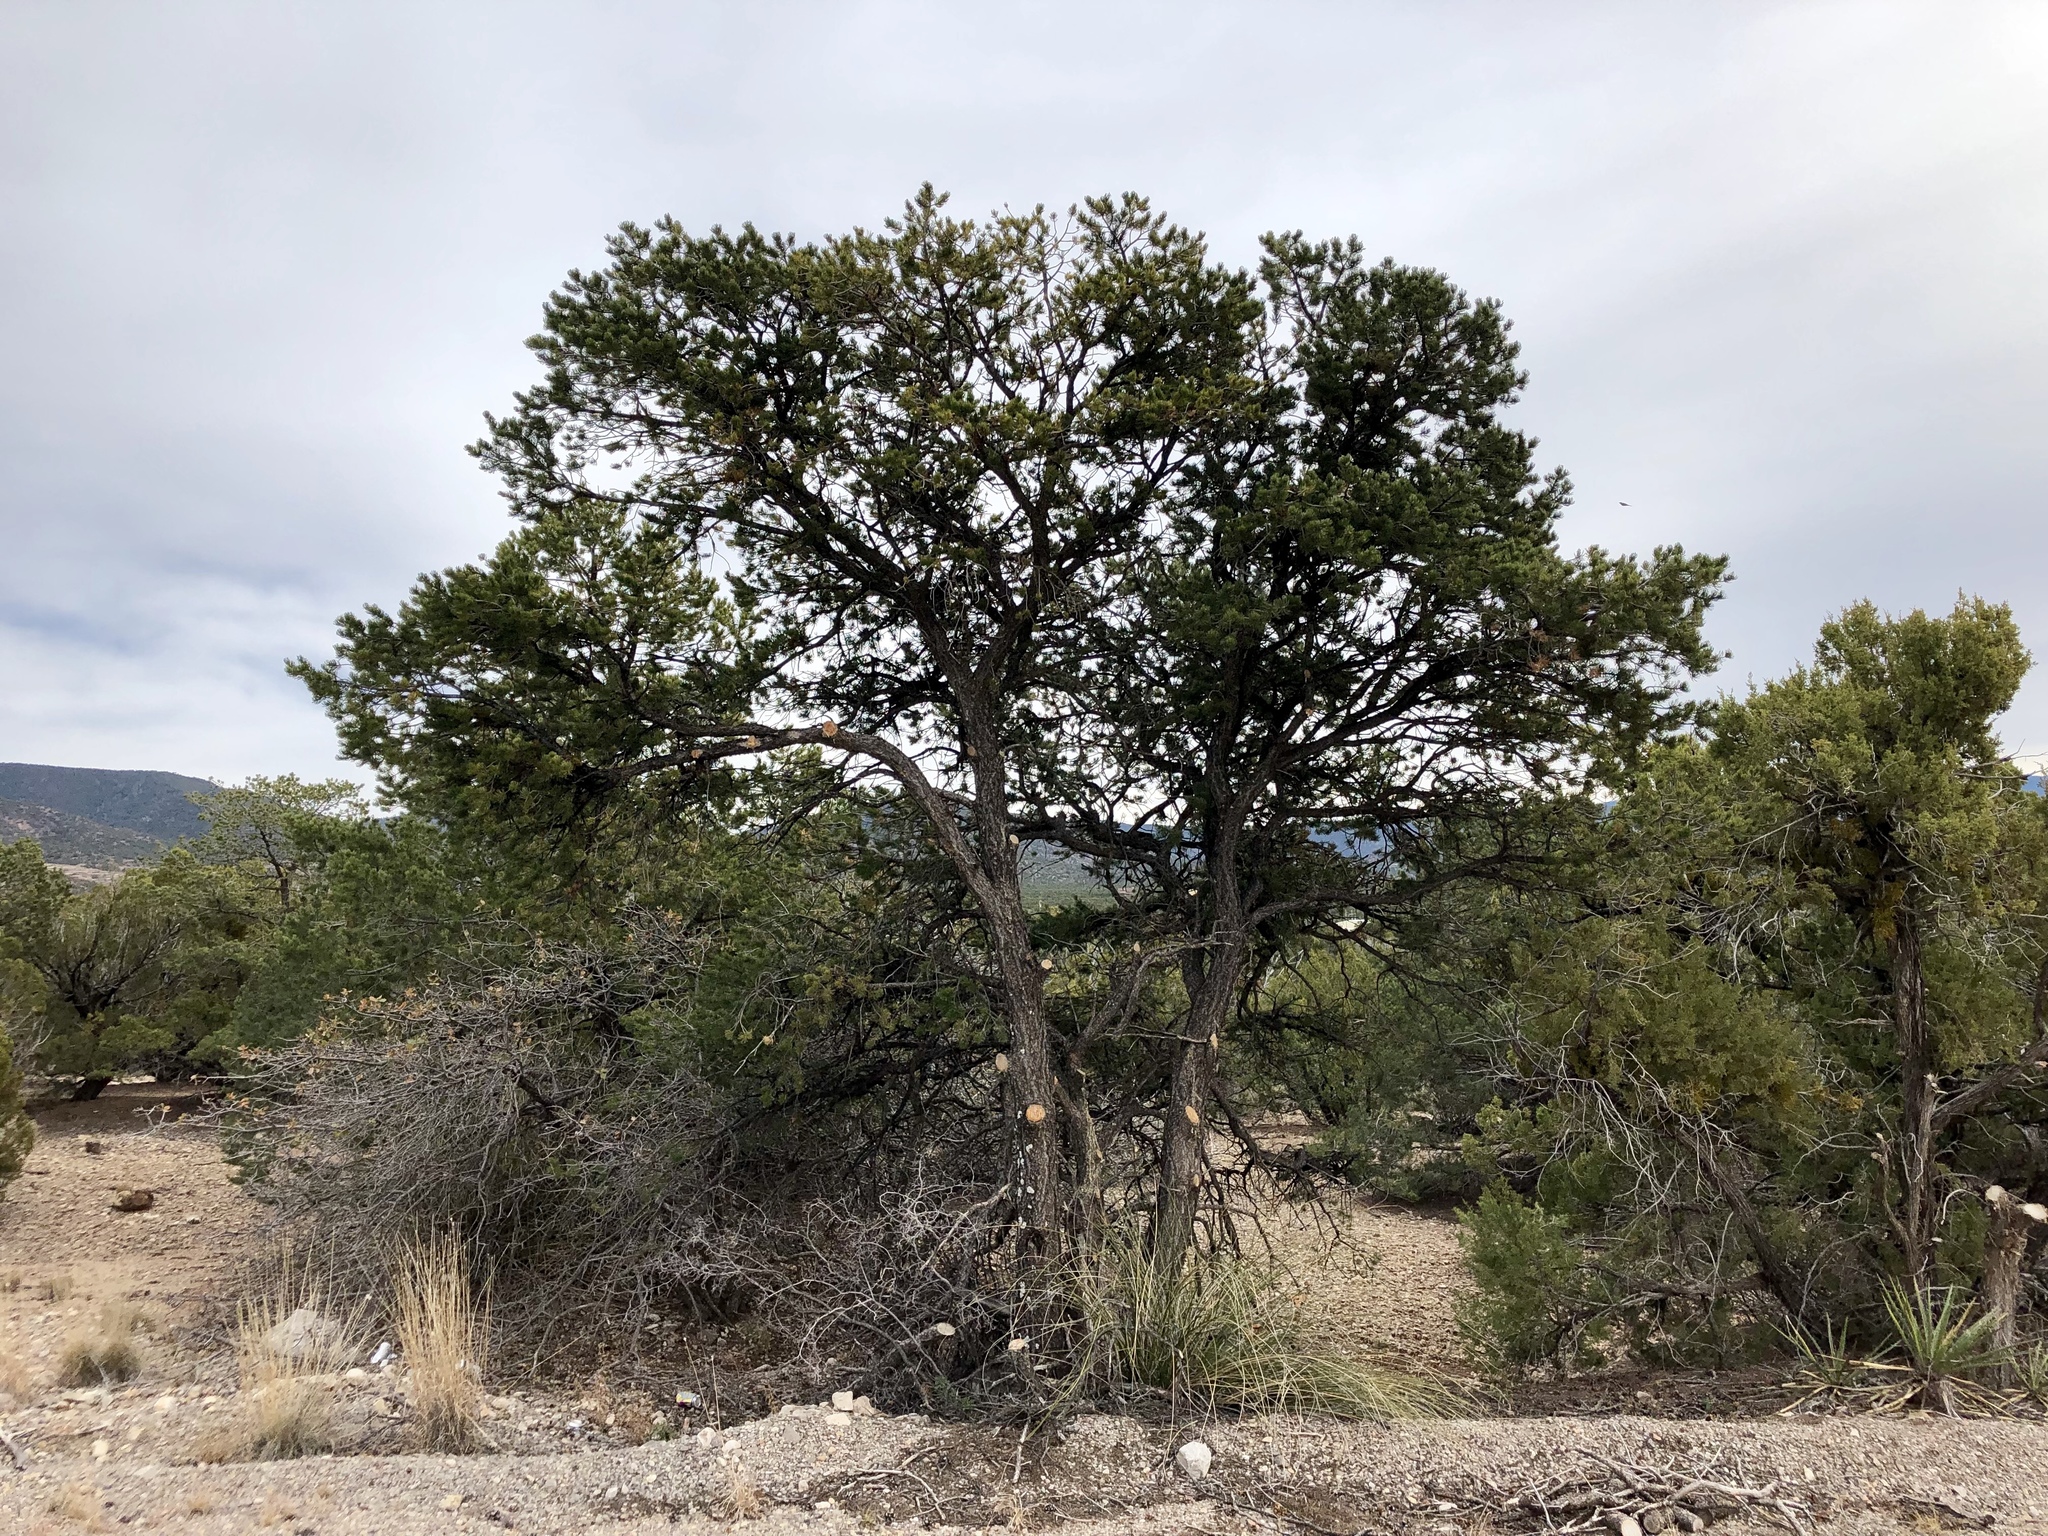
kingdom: Plantae
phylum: Tracheophyta
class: Pinopsida
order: Pinales
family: Pinaceae
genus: Pinus
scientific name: Pinus edulis
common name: Colorado pinyon
